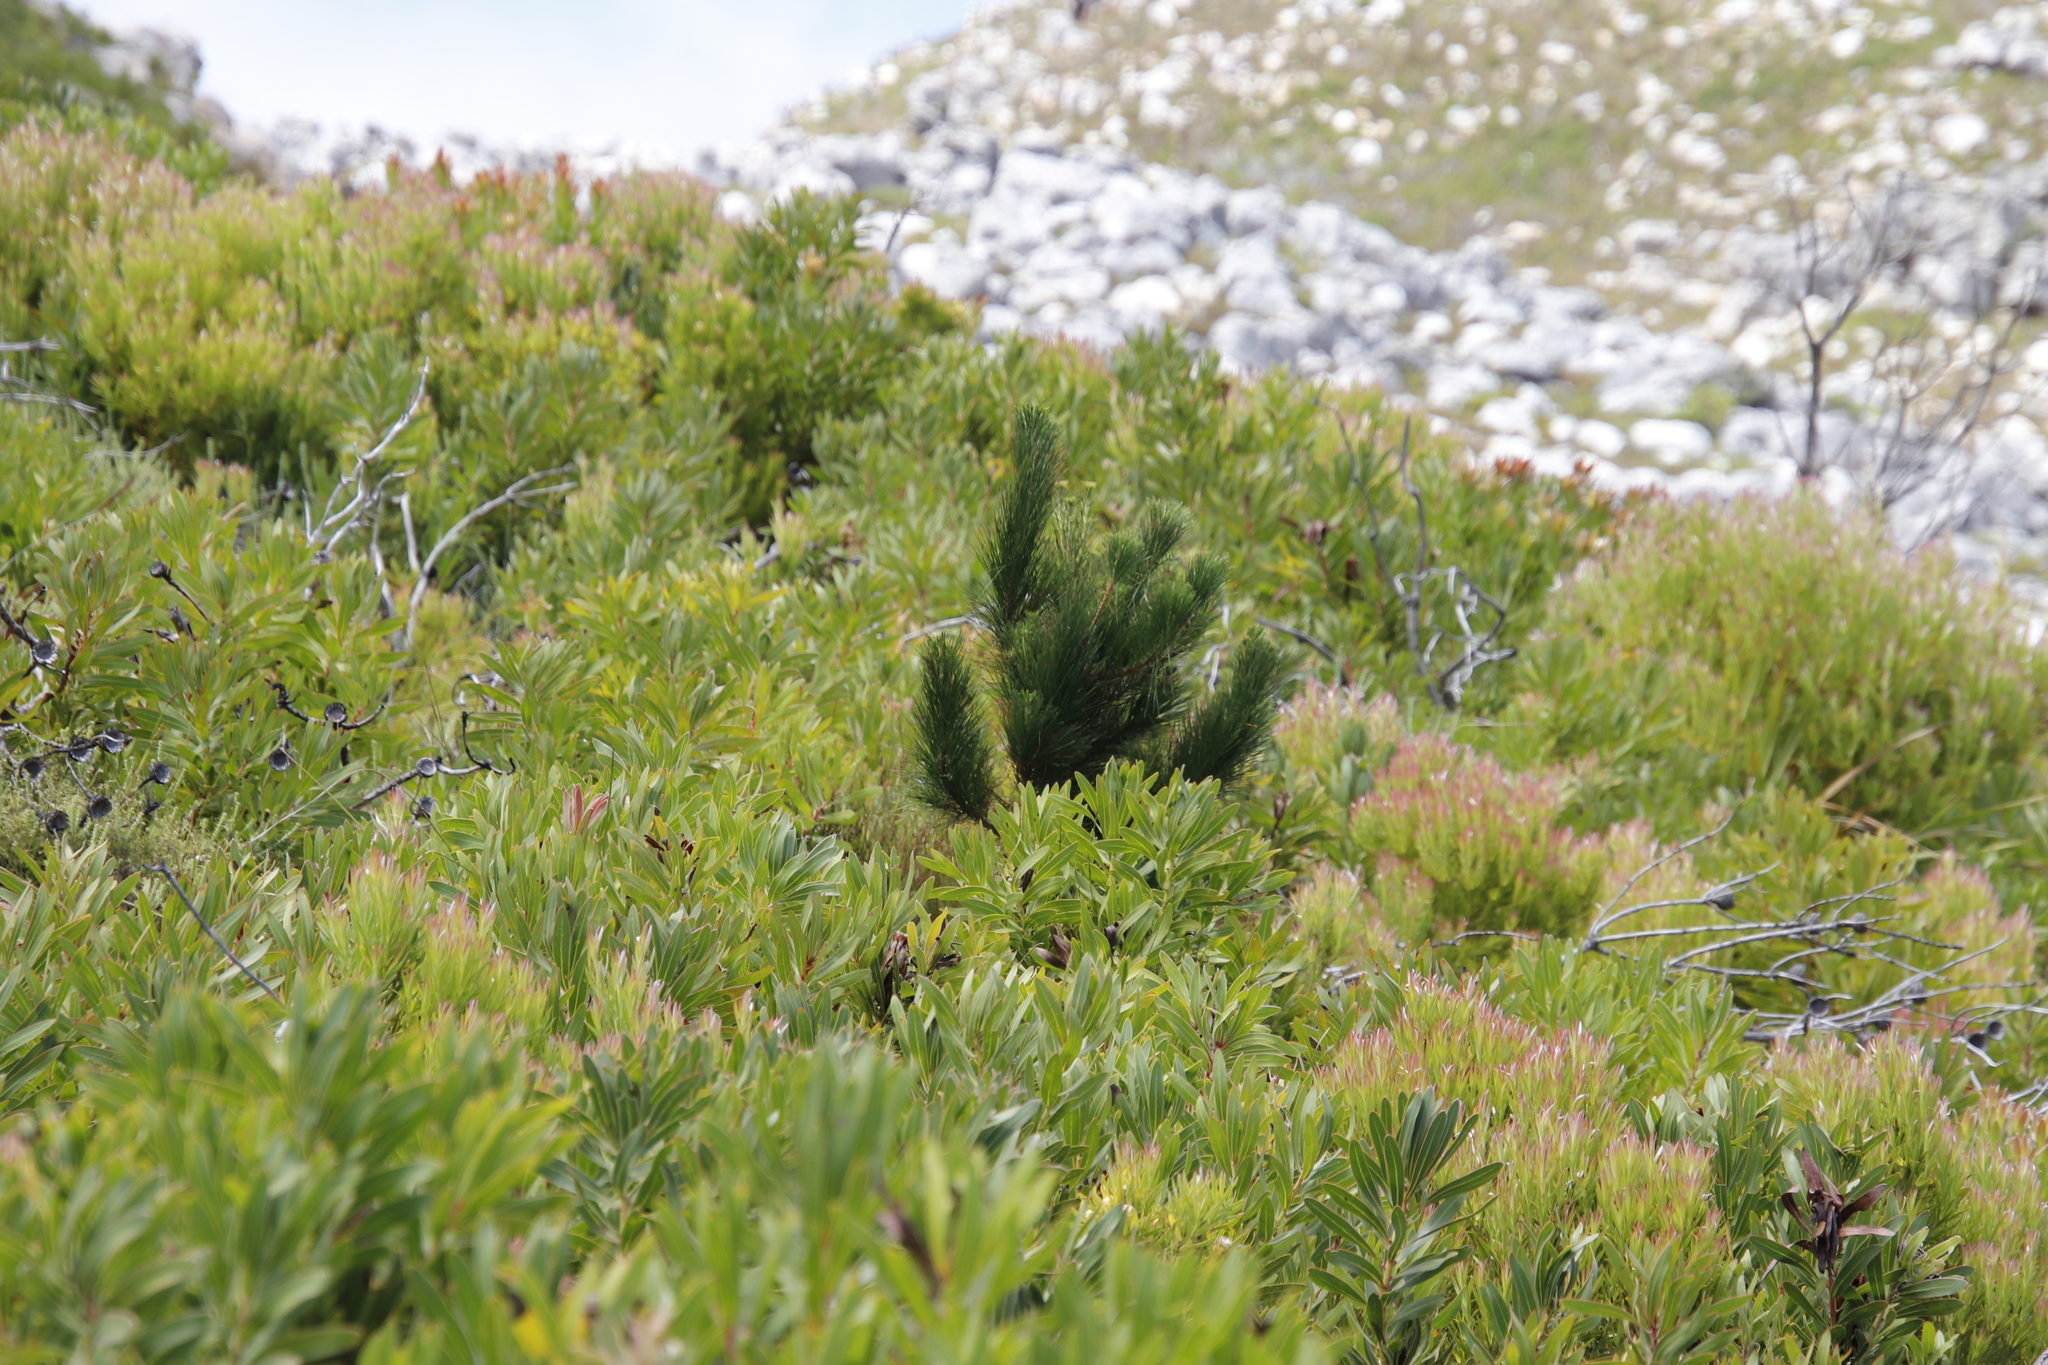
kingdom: Plantae
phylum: Tracheophyta
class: Magnoliopsida
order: Proteales
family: Proteaceae
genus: Protea
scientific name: Protea lepidocarpodendron
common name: Black-bearded protea
